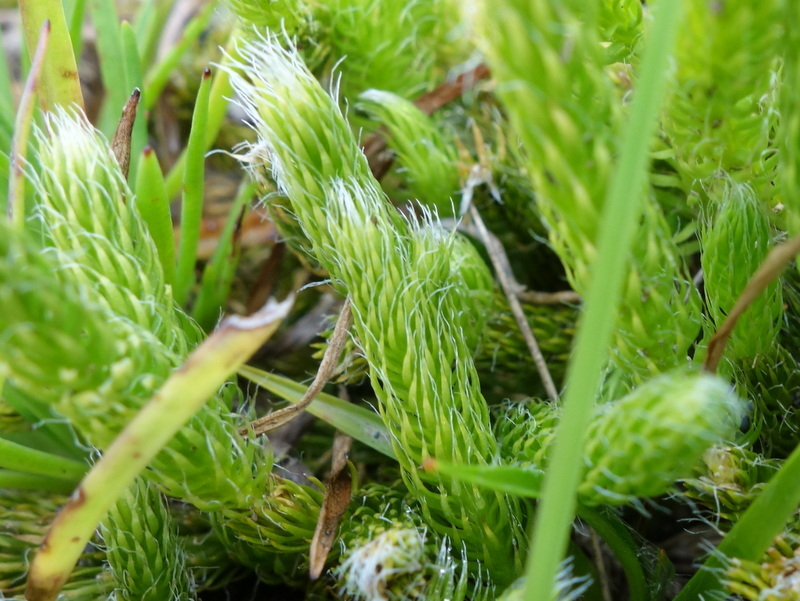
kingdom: Plantae
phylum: Tracheophyta
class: Lycopodiopsida
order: Lycopodiales
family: Lycopodiaceae
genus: Lycopodium
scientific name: Lycopodium clavatum
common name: Stag's-horn clubmoss
